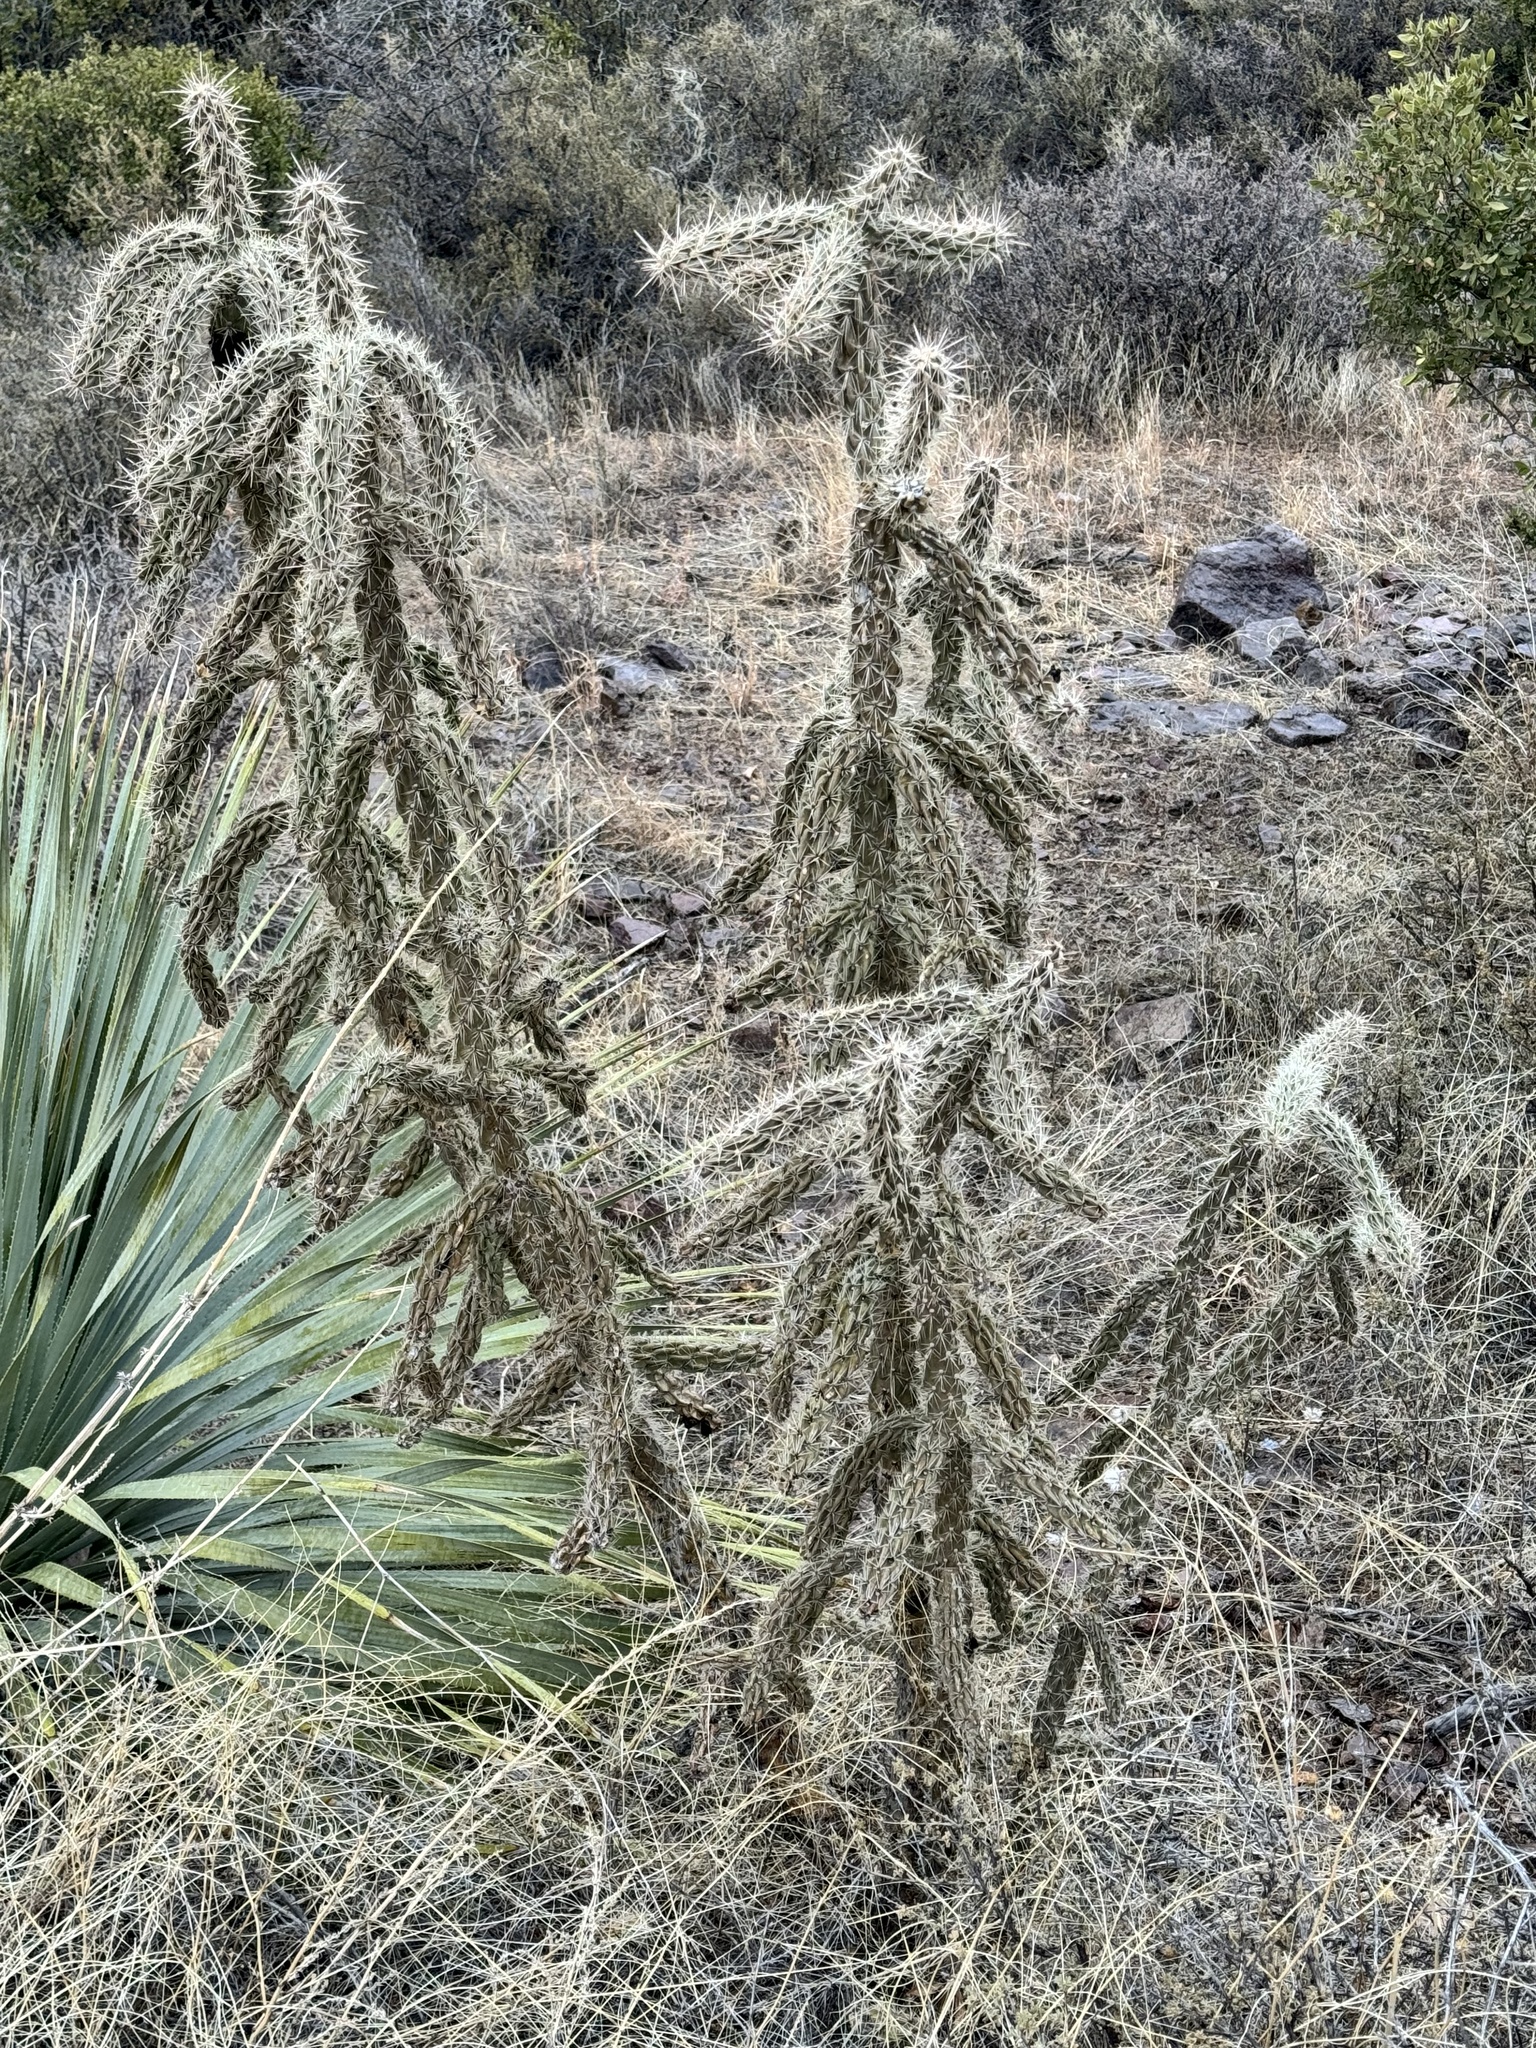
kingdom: Plantae
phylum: Tracheophyta
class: Magnoliopsida
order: Caryophyllales
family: Cactaceae
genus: Cylindropuntia
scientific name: Cylindropuntia imbricata
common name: Candelabrum cactus
